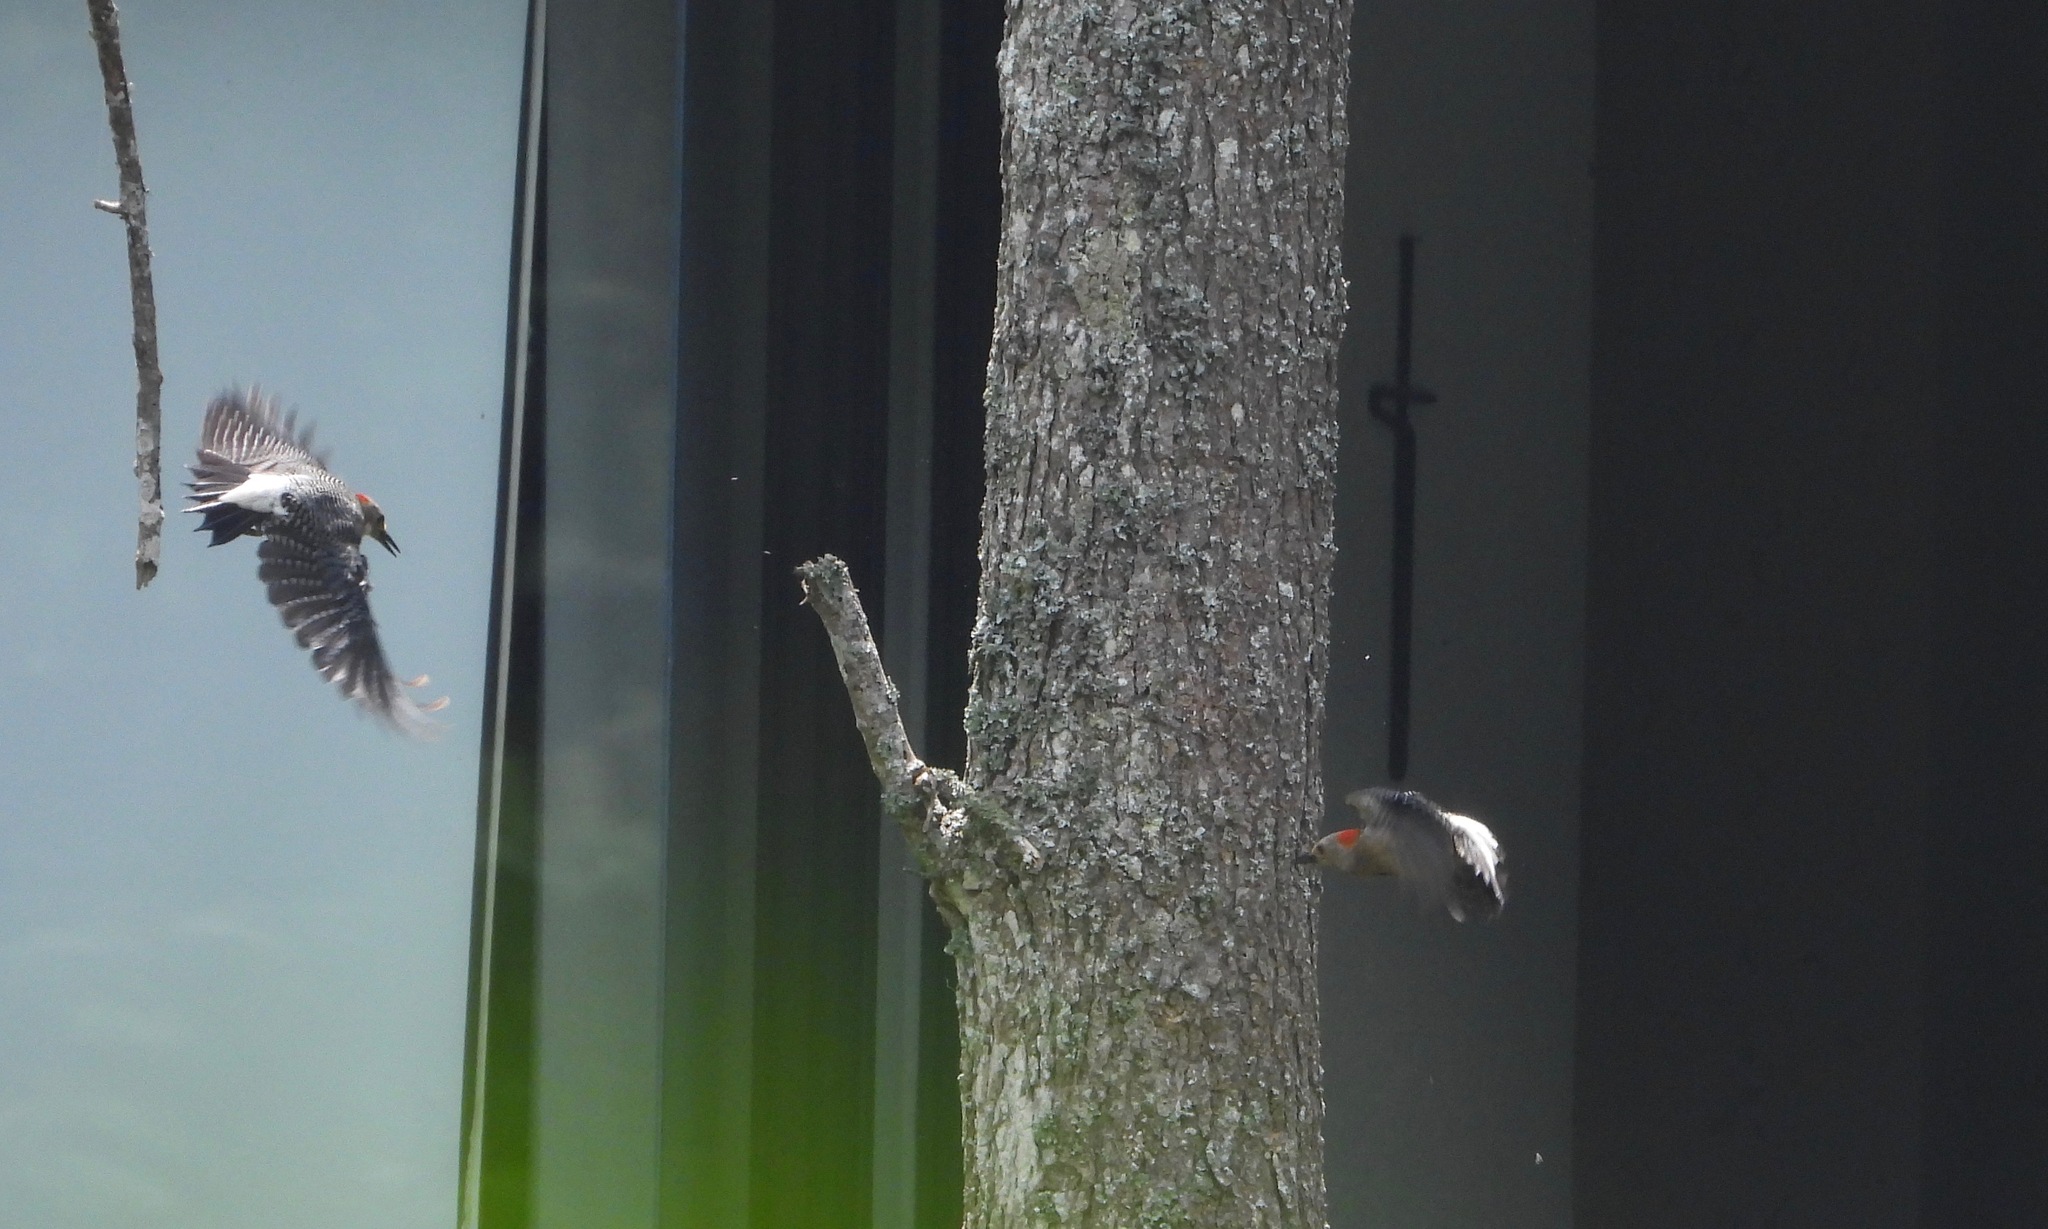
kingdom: Animalia
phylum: Chordata
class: Aves
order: Piciformes
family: Picidae
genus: Melanerpes
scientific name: Melanerpes santacruzi
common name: Velasquez's woodpecker
